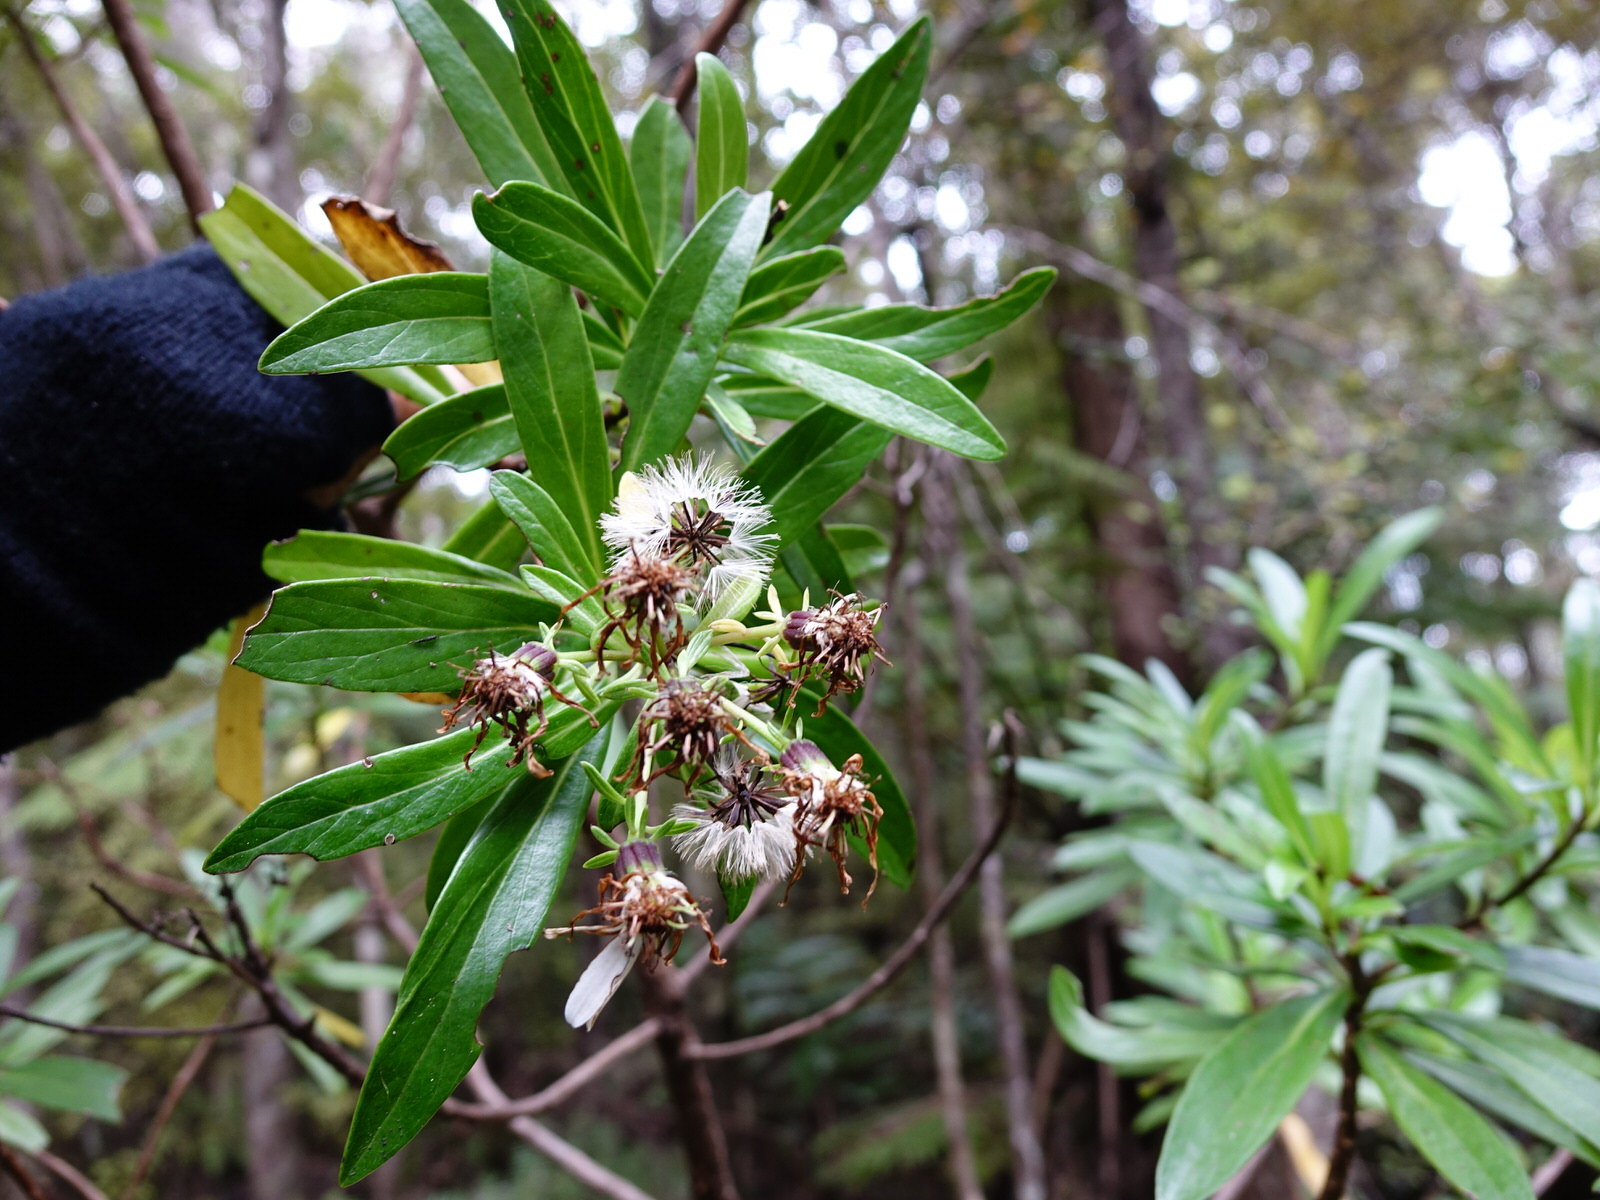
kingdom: Plantae
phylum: Tracheophyta
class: Magnoliopsida
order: Asterales
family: Asteraceae
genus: Brachyglottis
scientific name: Brachyglottis kirkii
